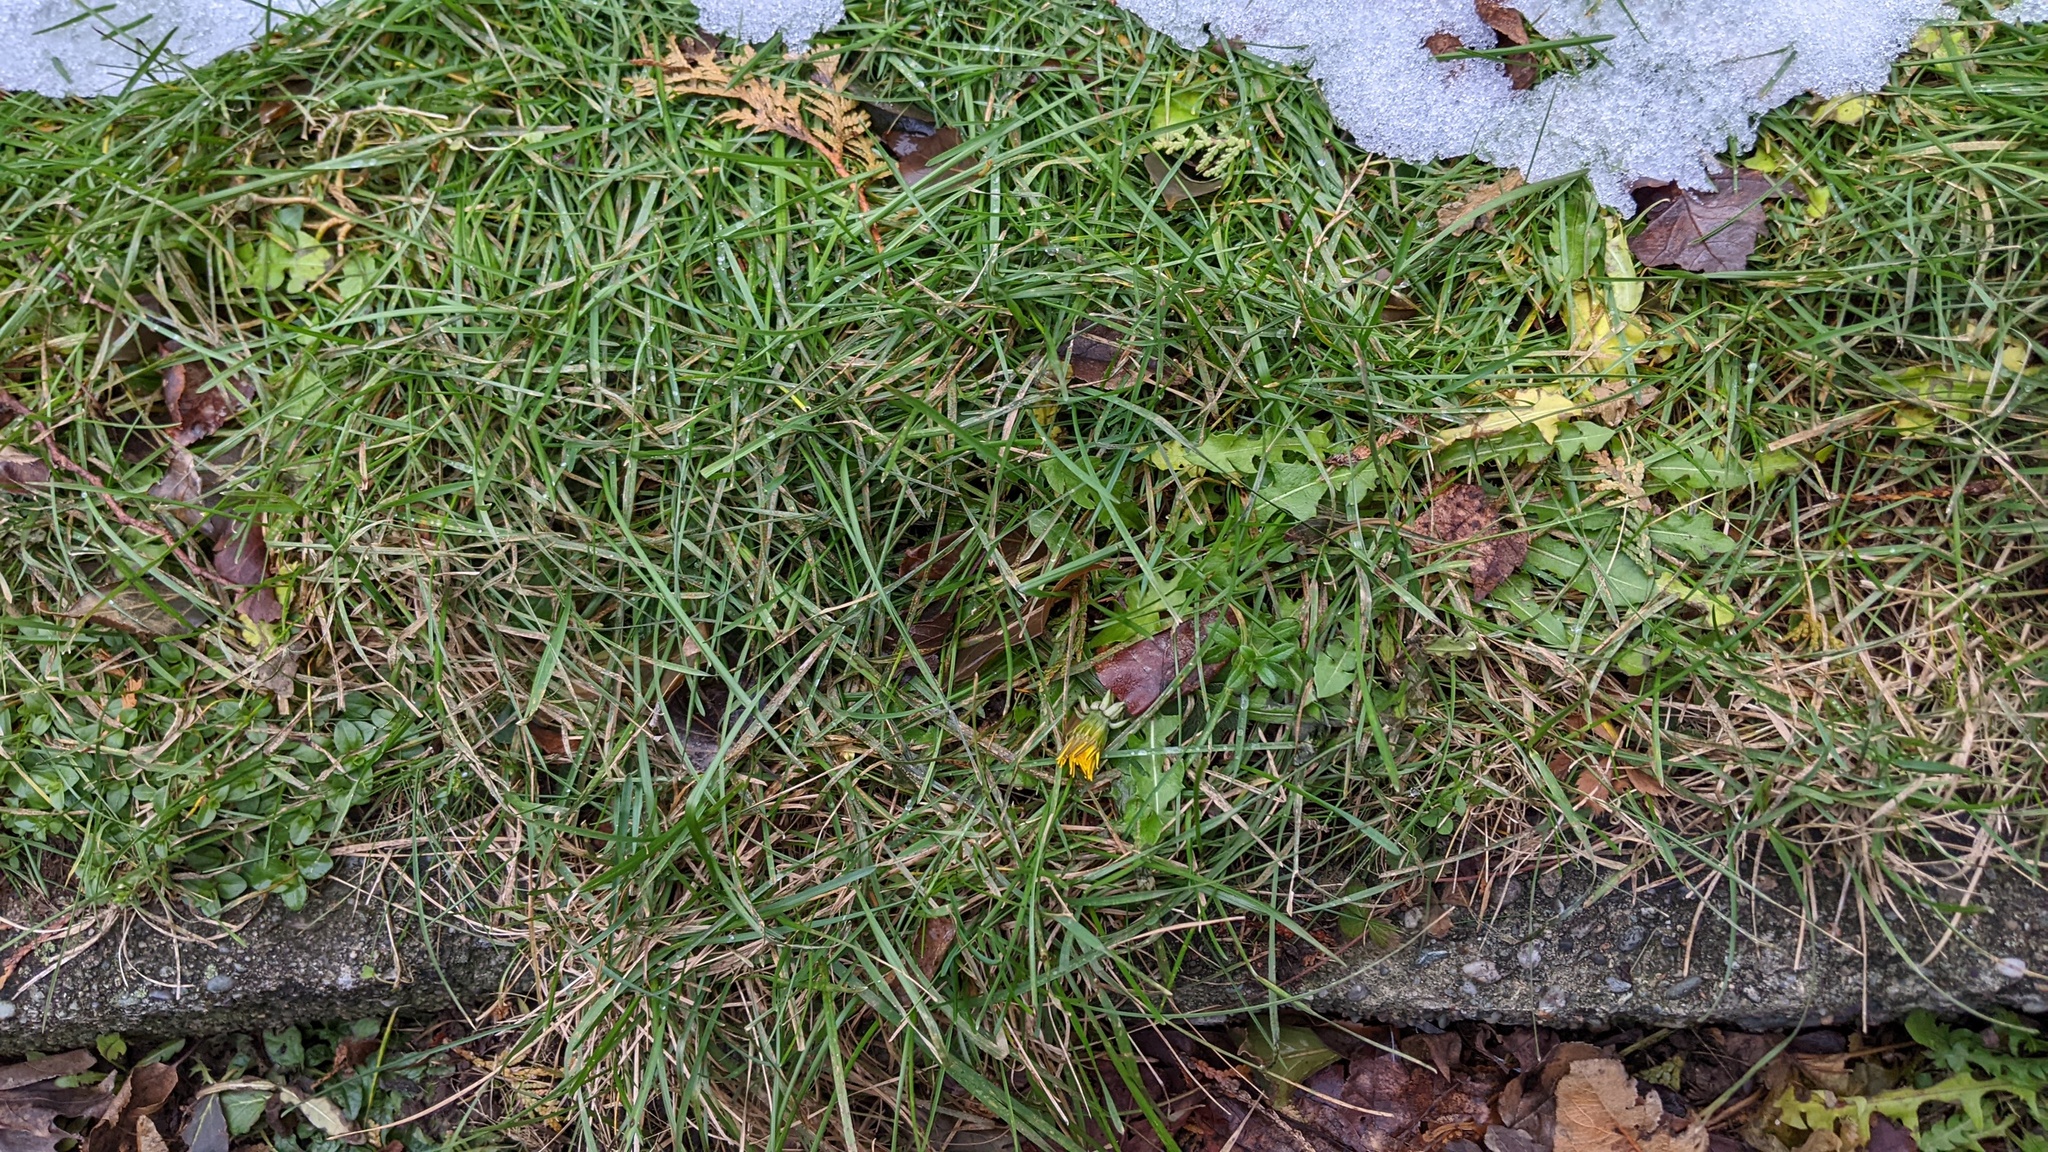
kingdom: Plantae
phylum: Tracheophyta
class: Magnoliopsida
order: Asterales
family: Asteraceae
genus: Taraxacum
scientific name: Taraxacum officinale
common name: Common dandelion
